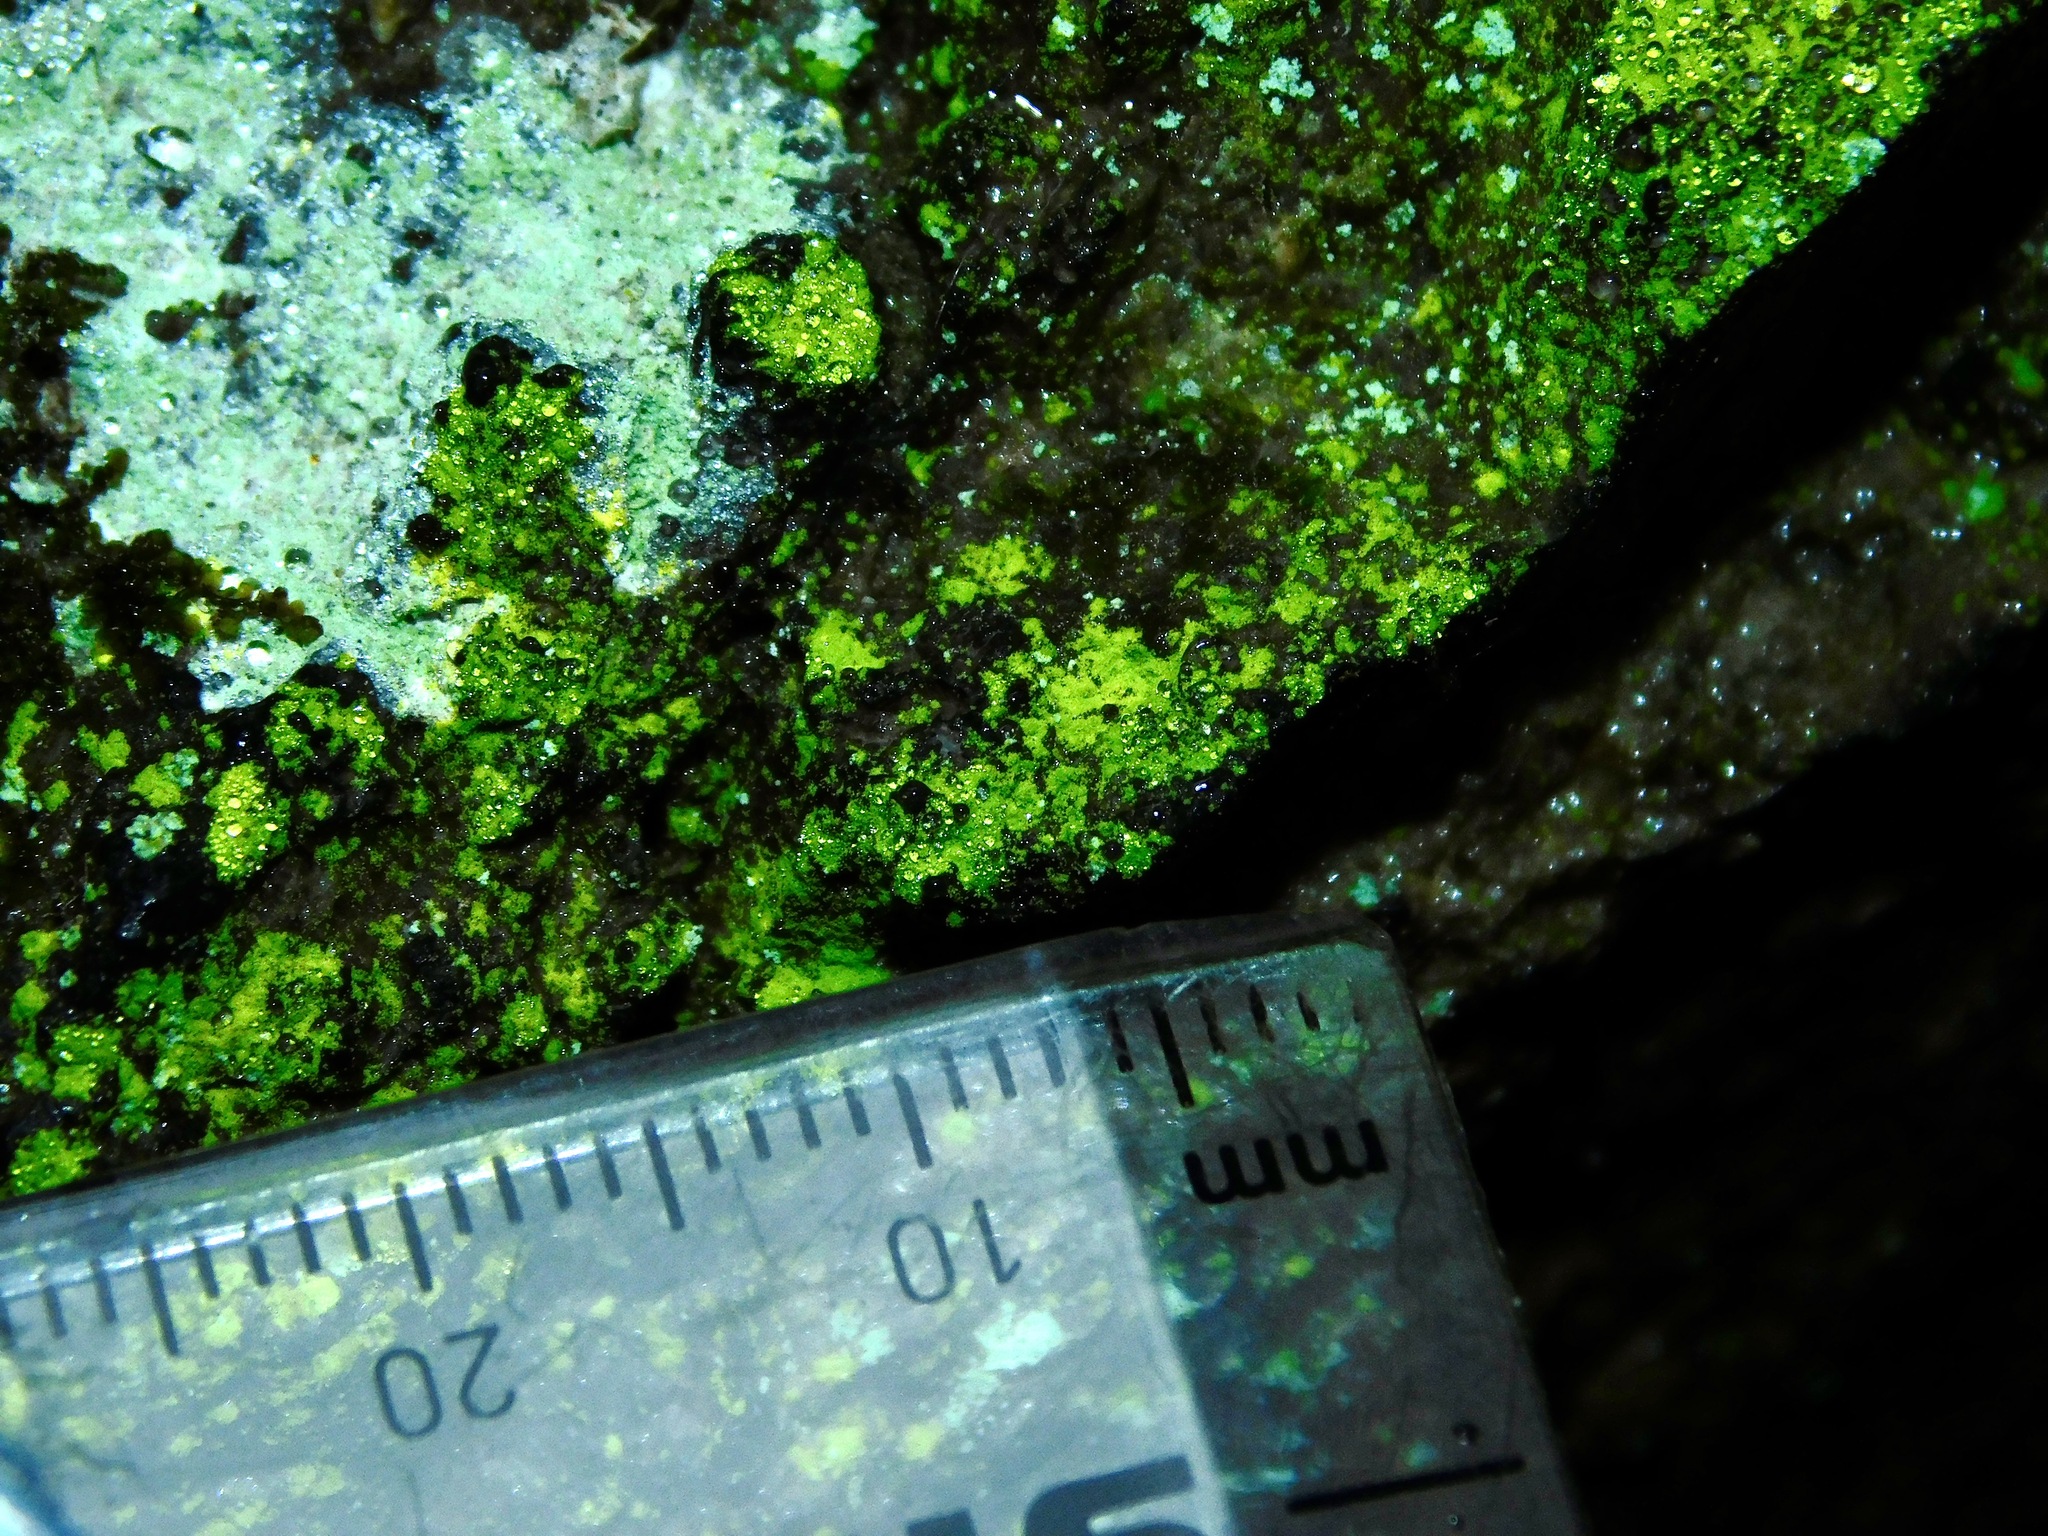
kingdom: Fungi
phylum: Ascomycota
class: Arthoniomycetes
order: Arthoniales
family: Chrysotrichaceae
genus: Chrysothrix
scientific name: Chrysothrix insulizans
